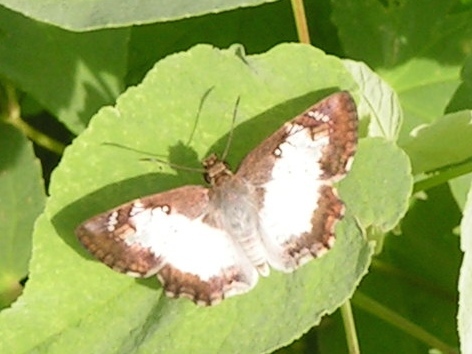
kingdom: Animalia
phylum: Arthropoda
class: Insecta
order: Lepidoptera
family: Hesperiidae
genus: Antigonus
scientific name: Antigonus emorsa
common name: White spurwing
